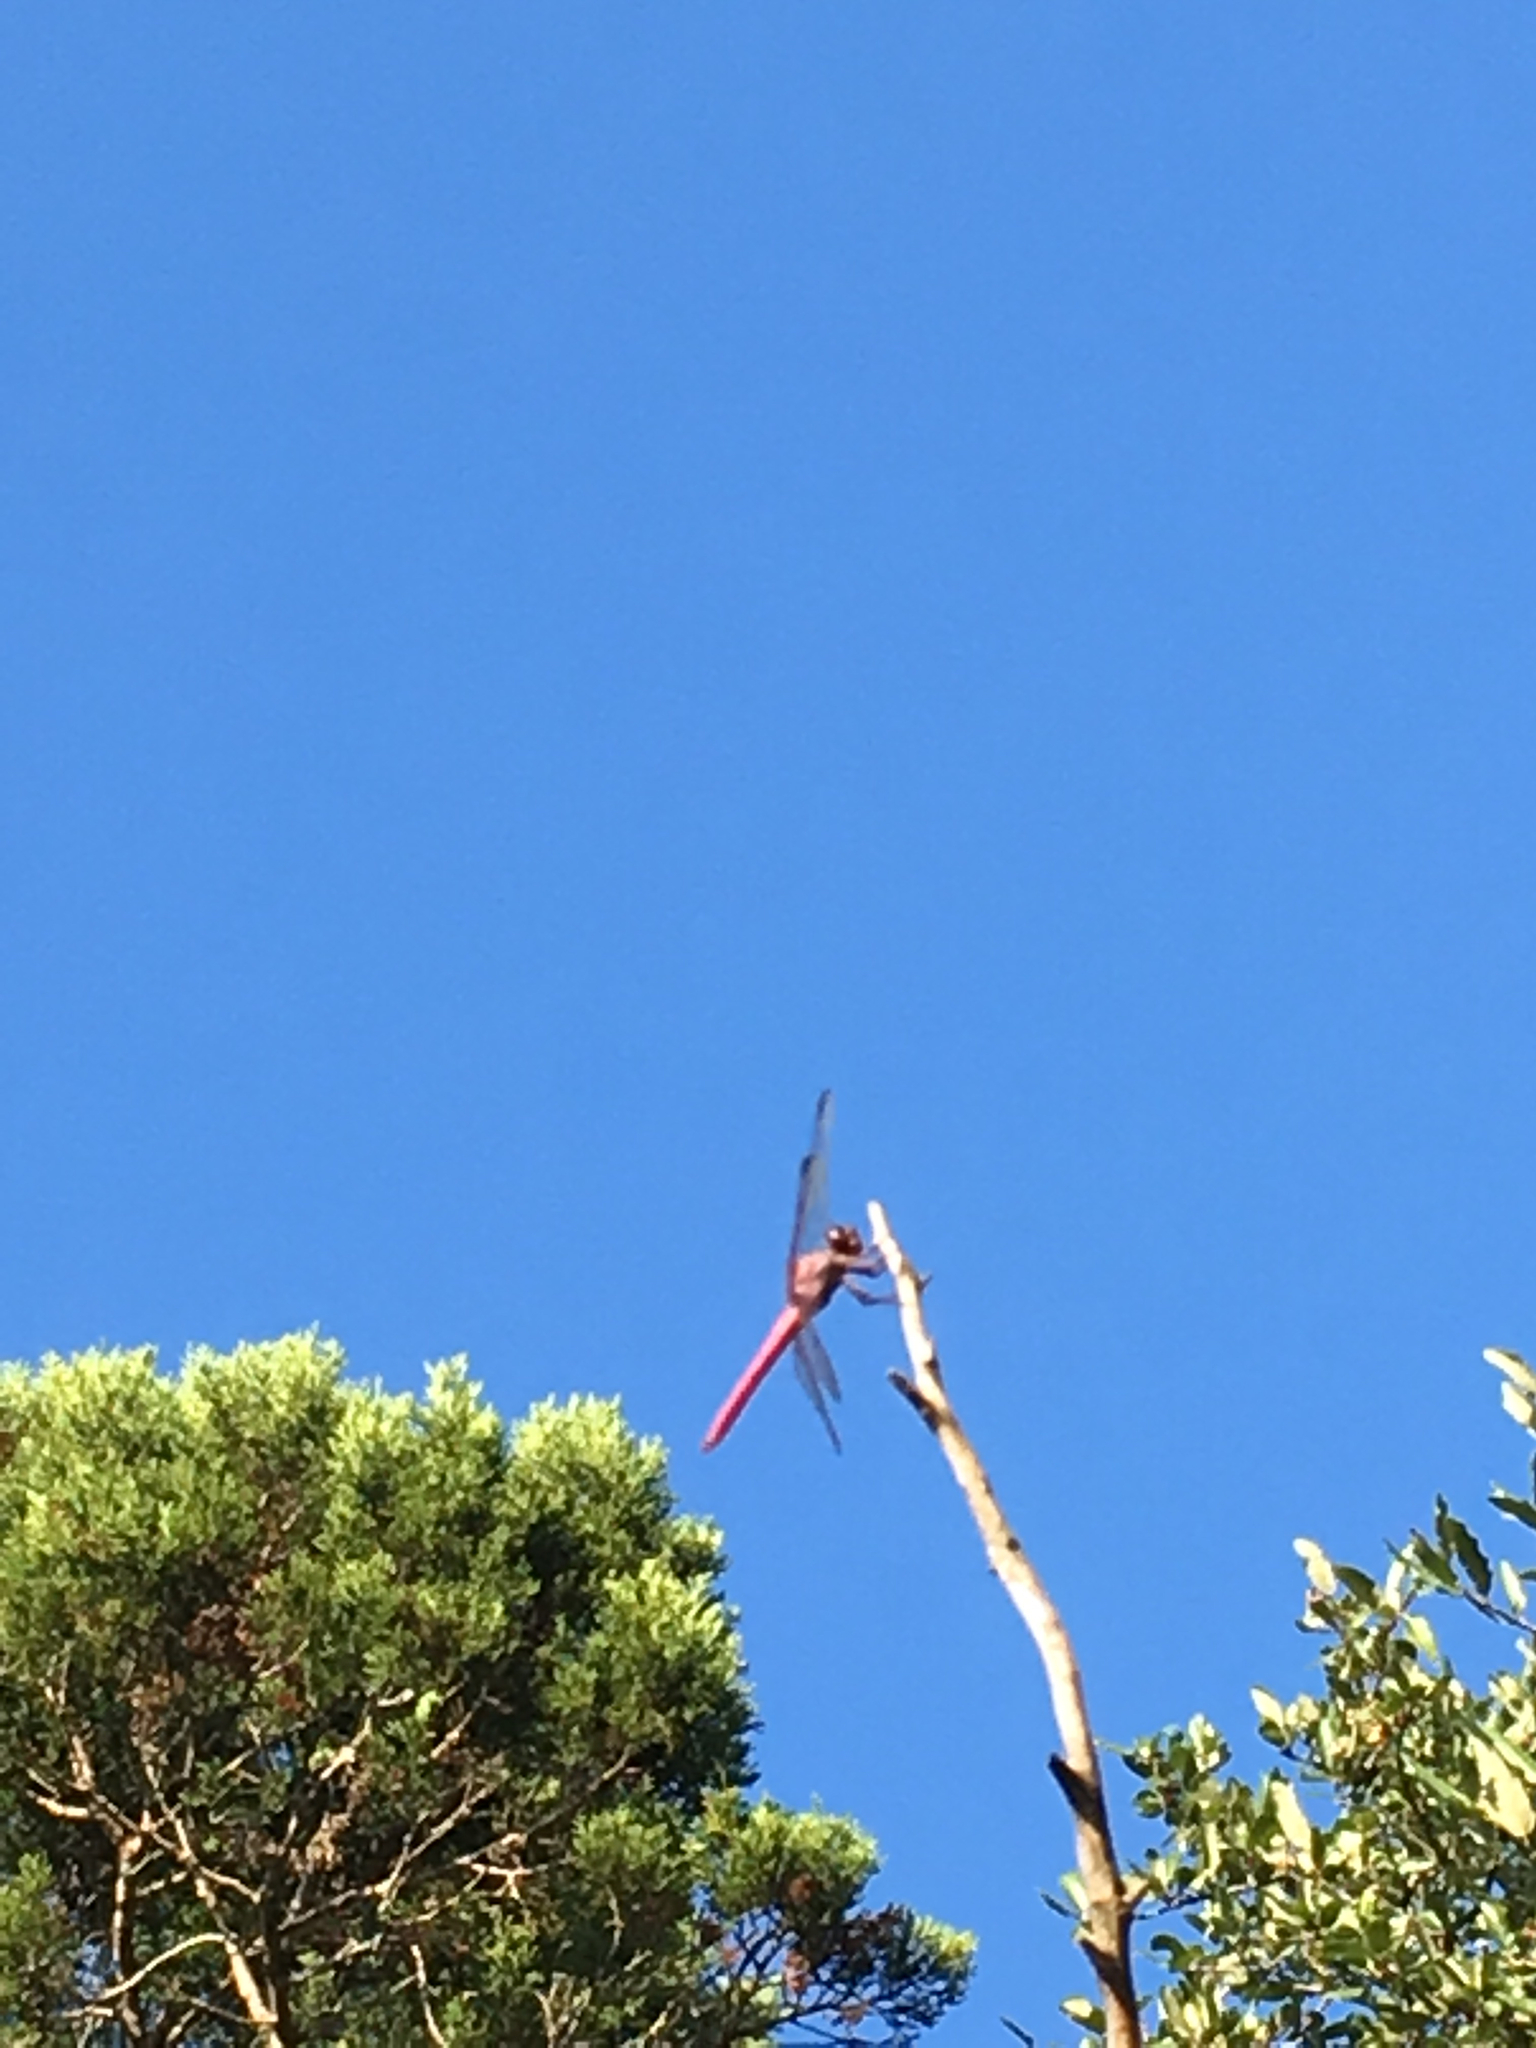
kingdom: Animalia
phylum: Arthropoda
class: Insecta
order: Odonata
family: Libellulidae
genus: Orthemis
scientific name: Orthemis ferruginea
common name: Roseate skimmer
